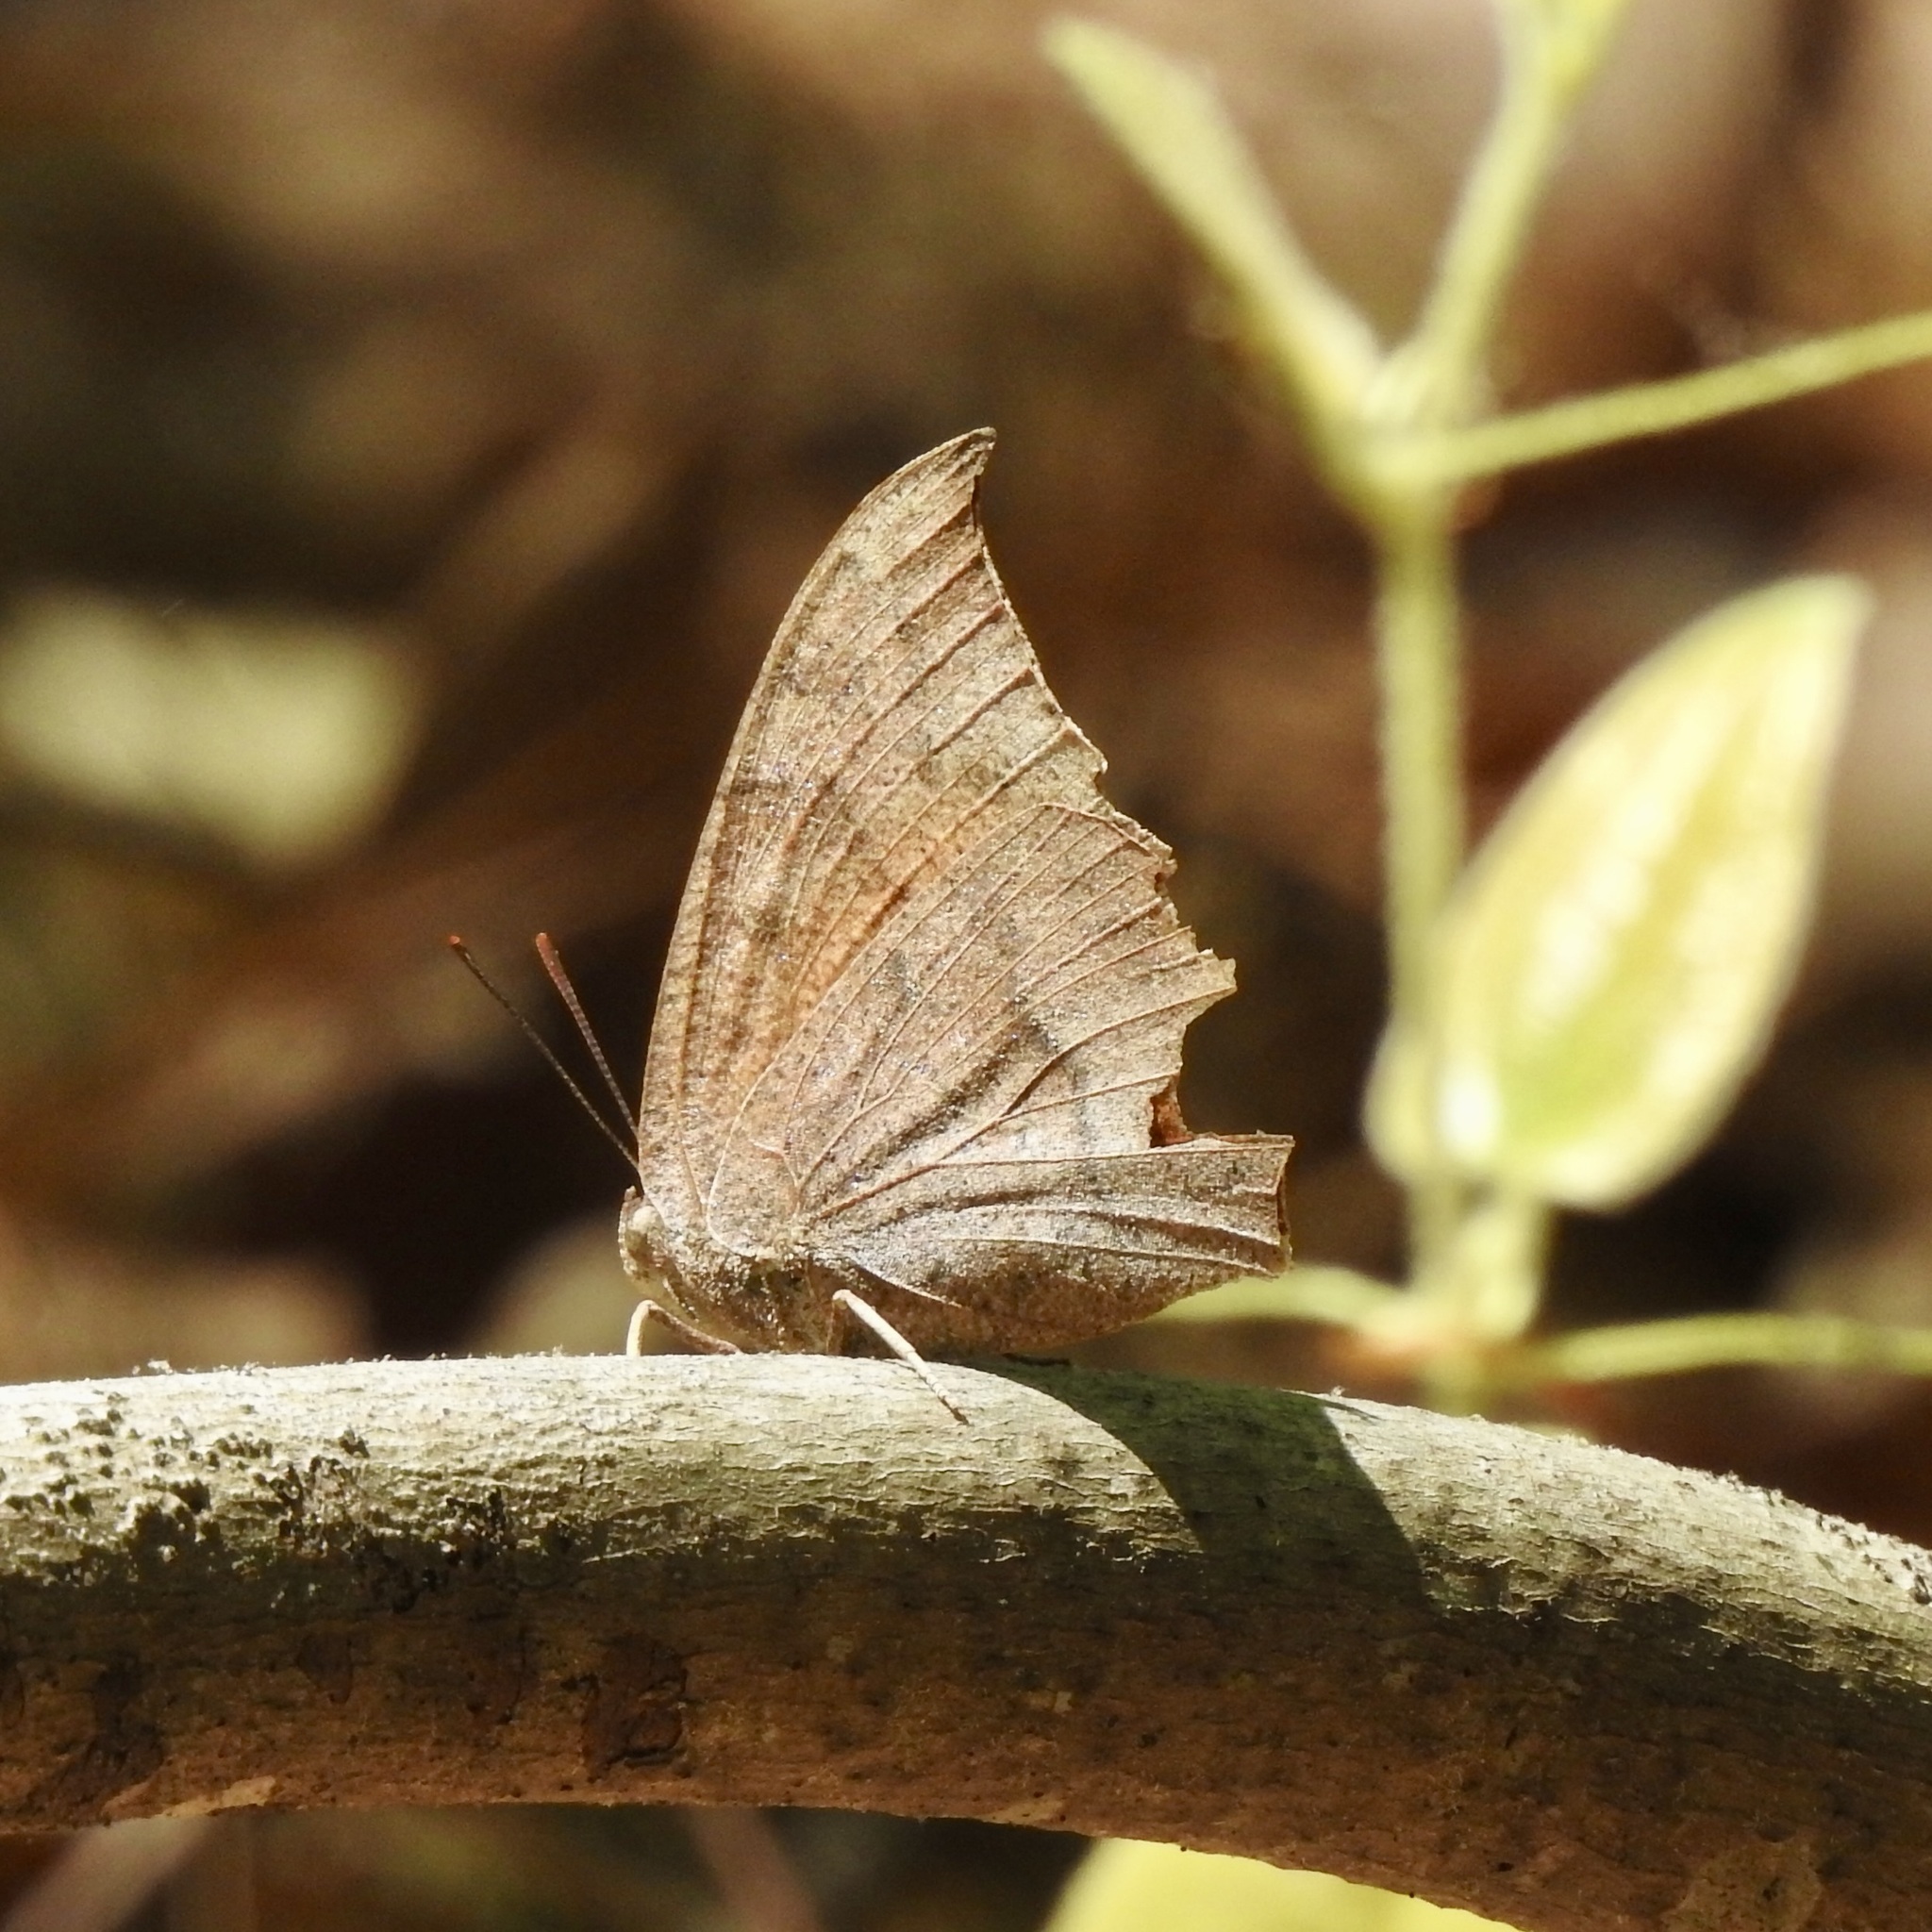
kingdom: Animalia
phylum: Arthropoda
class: Insecta
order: Lepidoptera
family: Nymphalidae
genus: Anaea
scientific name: Anaea andria
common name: Goatweed leafwing
